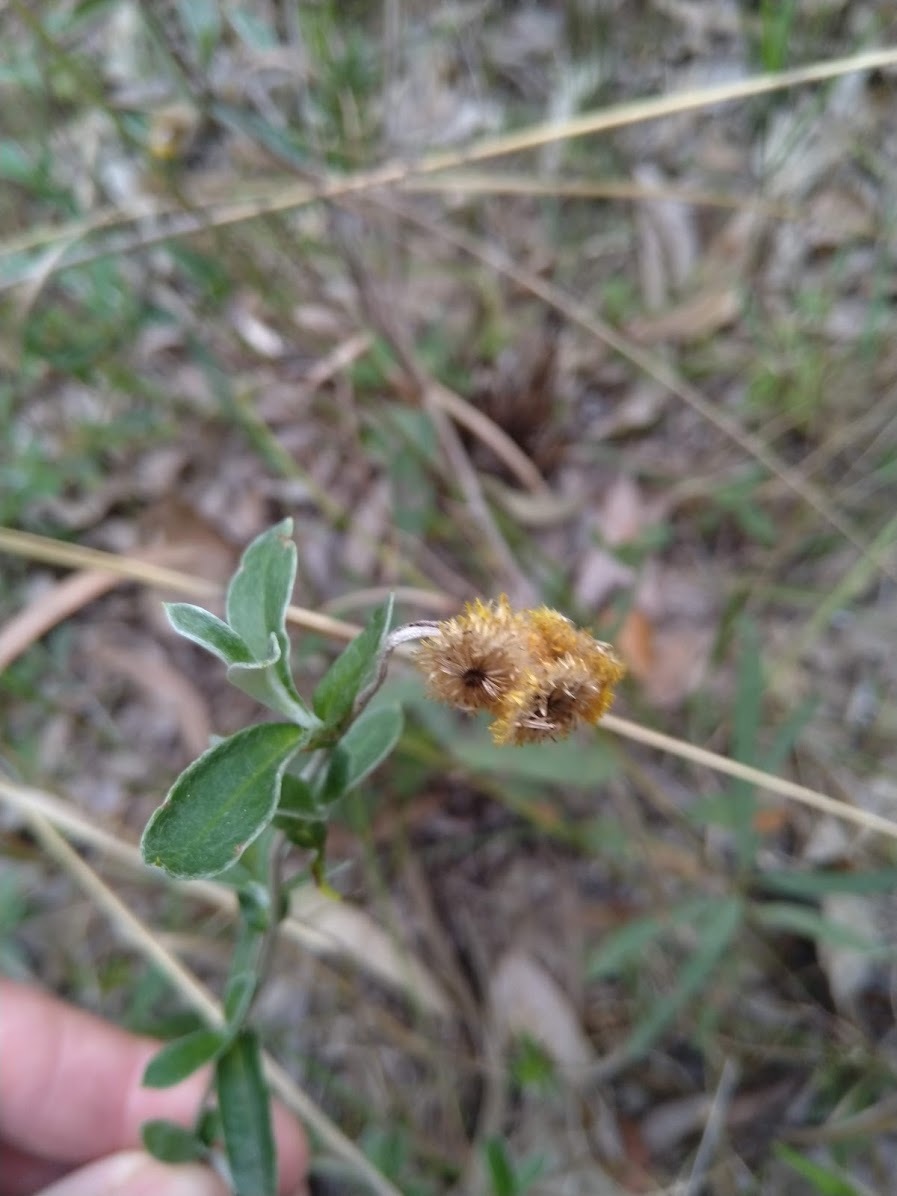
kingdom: Plantae
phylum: Tracheophyta
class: Magnoliopsida
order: Asterales
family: Asteraceae
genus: Chrysocephalum
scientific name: Chrysocephalum apiculatum
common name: Common everlasting
